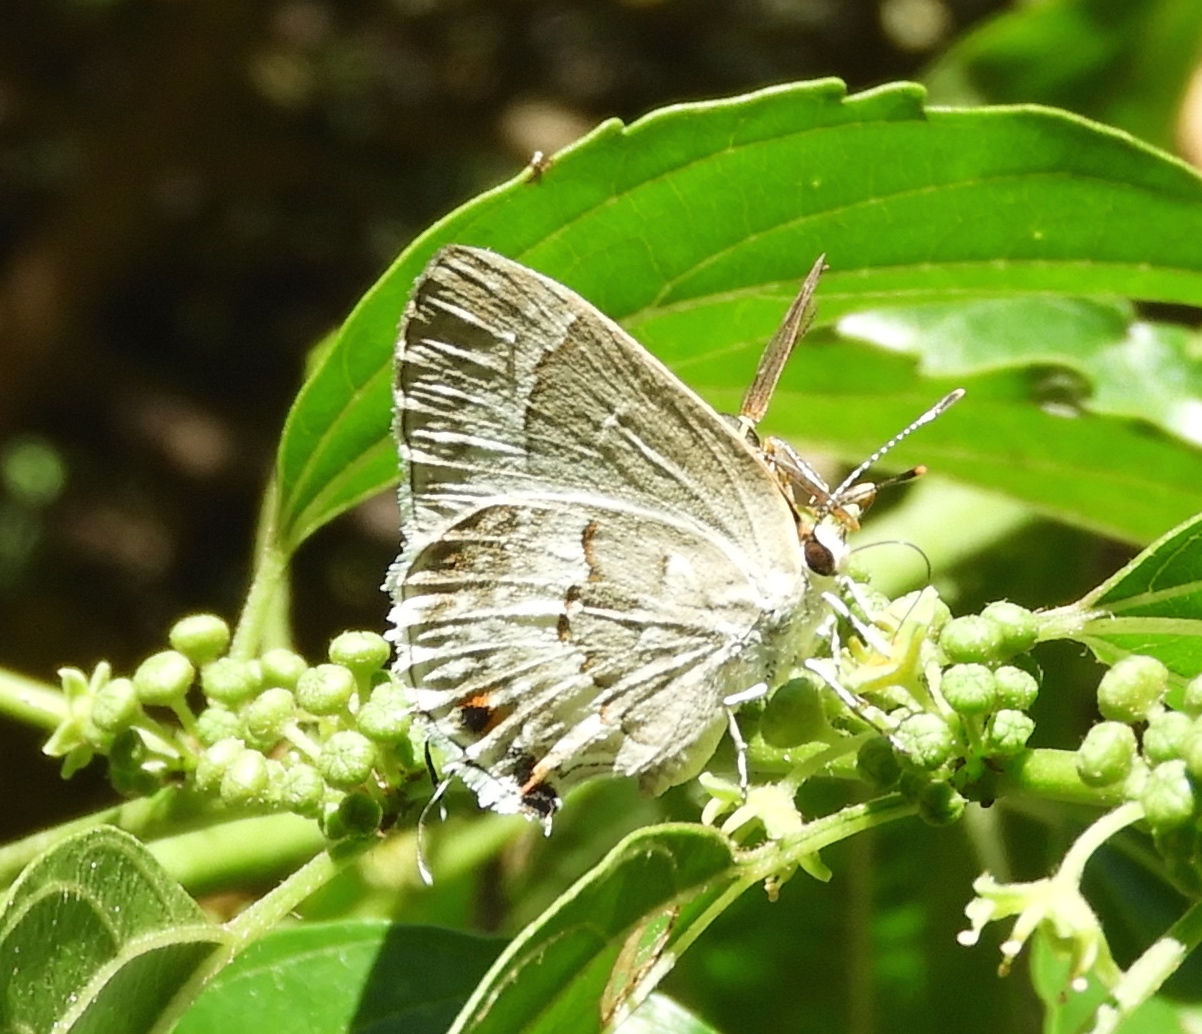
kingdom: Animalia
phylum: Arthropoda
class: Insecta
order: Lepidoptera
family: Lycaenidae
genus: Strymon
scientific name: Strymon albata
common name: White scrub-hairstreak
